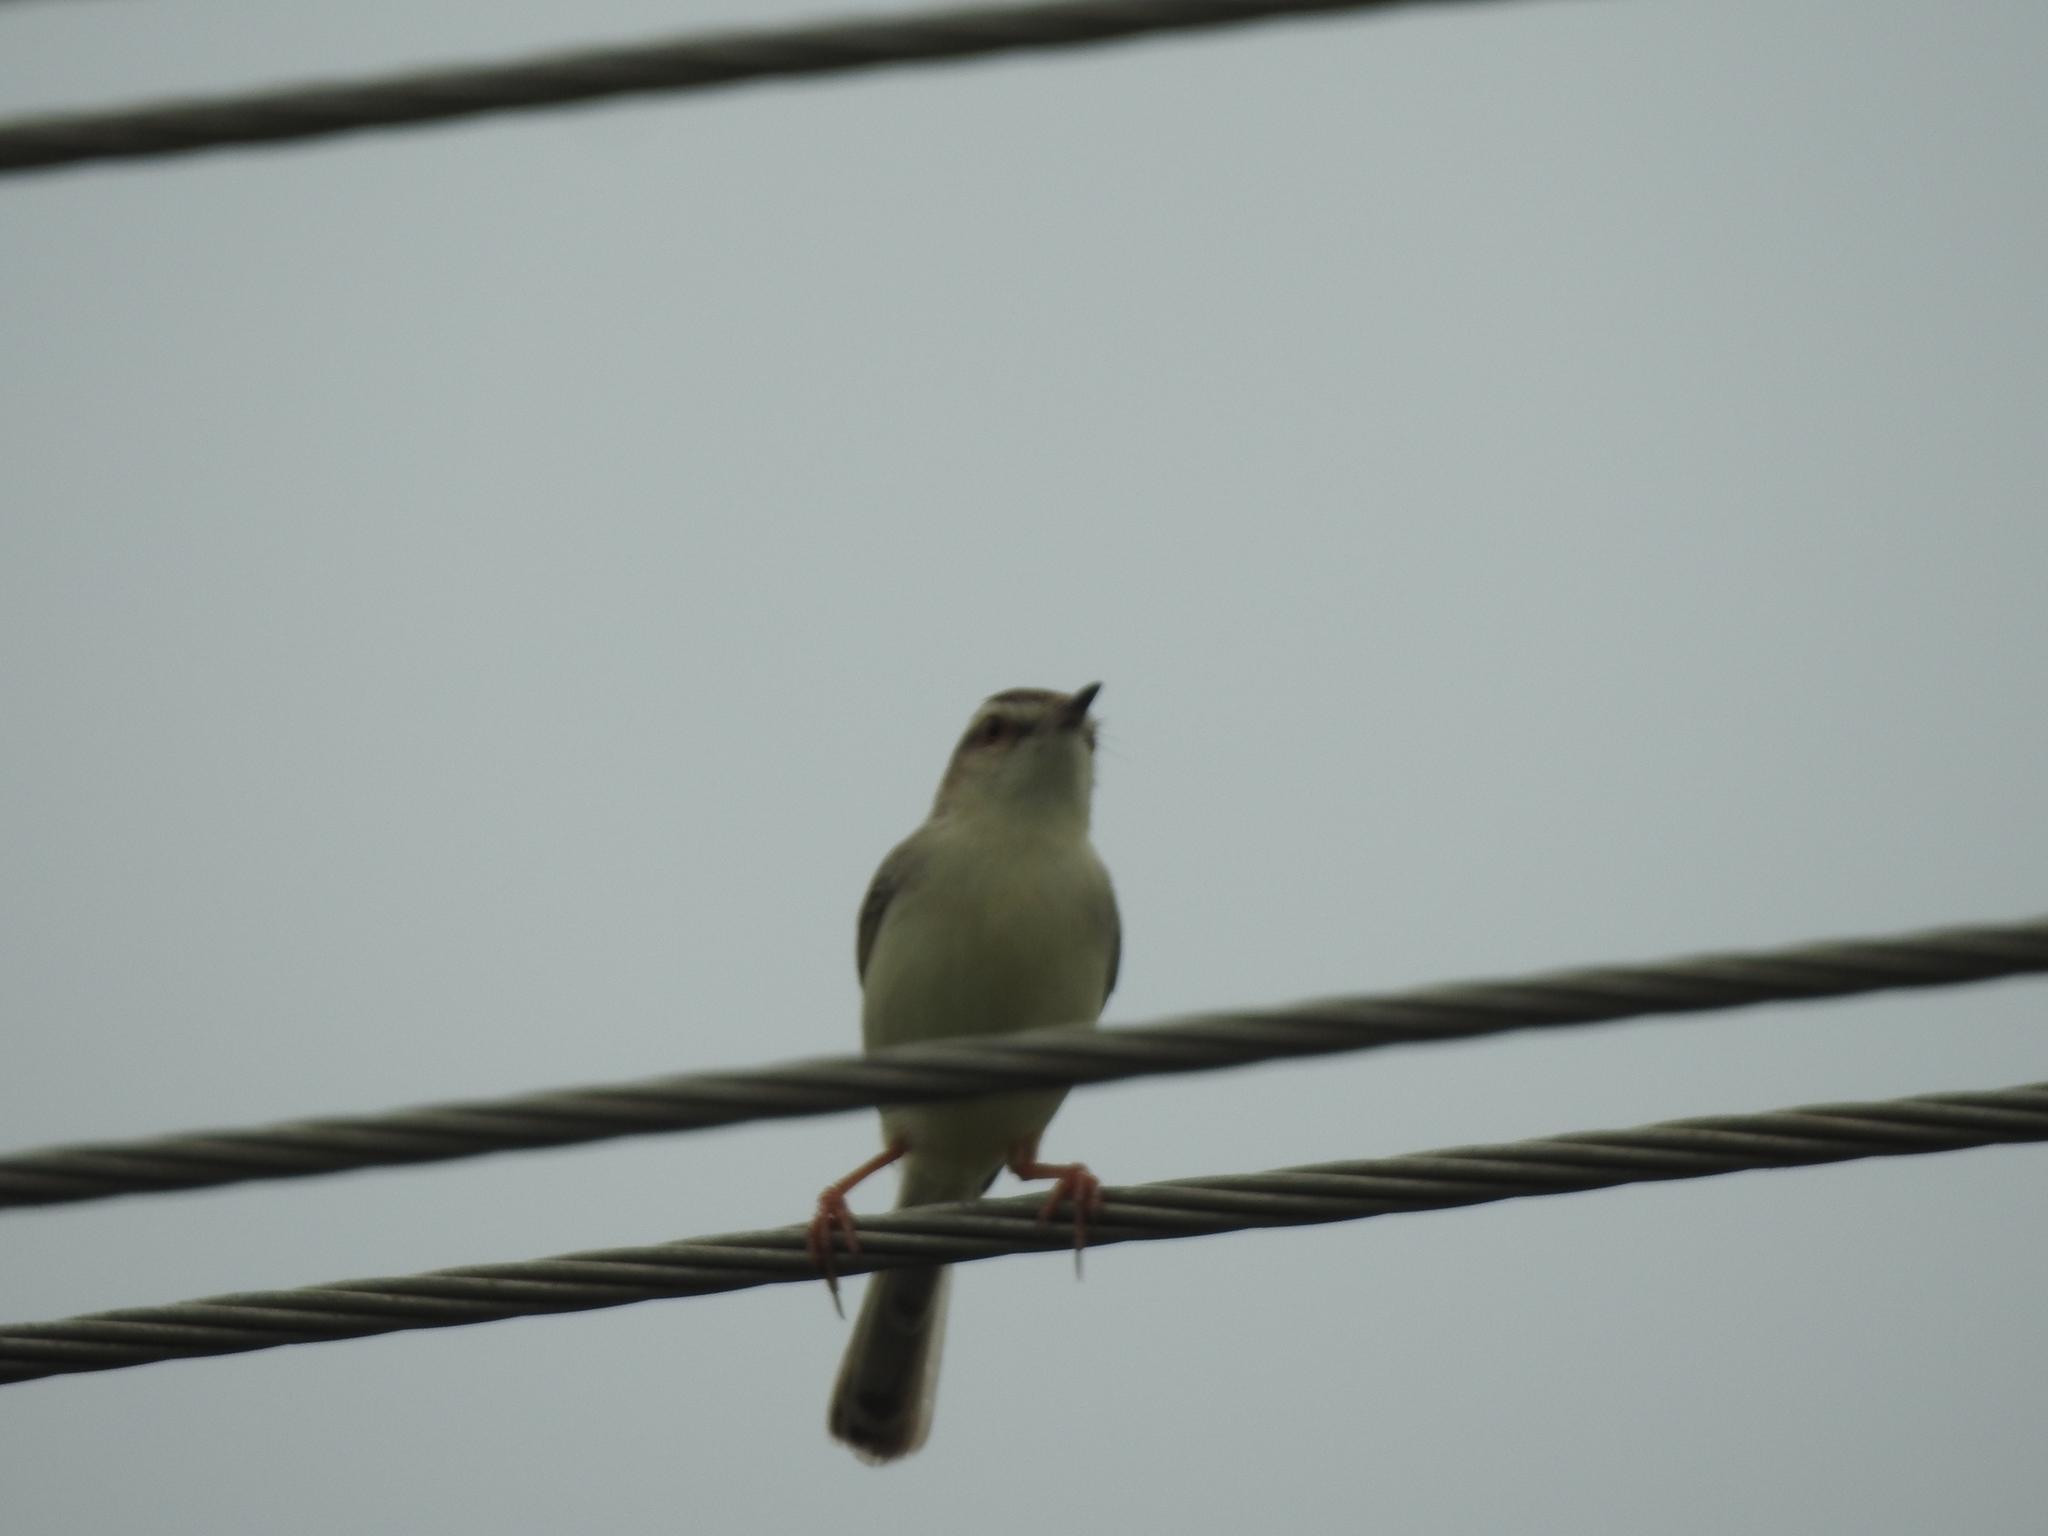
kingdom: Animalia
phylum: Chordata
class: Aves
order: Passeriformes
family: Cisticolidae
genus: Prinia
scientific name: Prinia inornata
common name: Plain prinia
